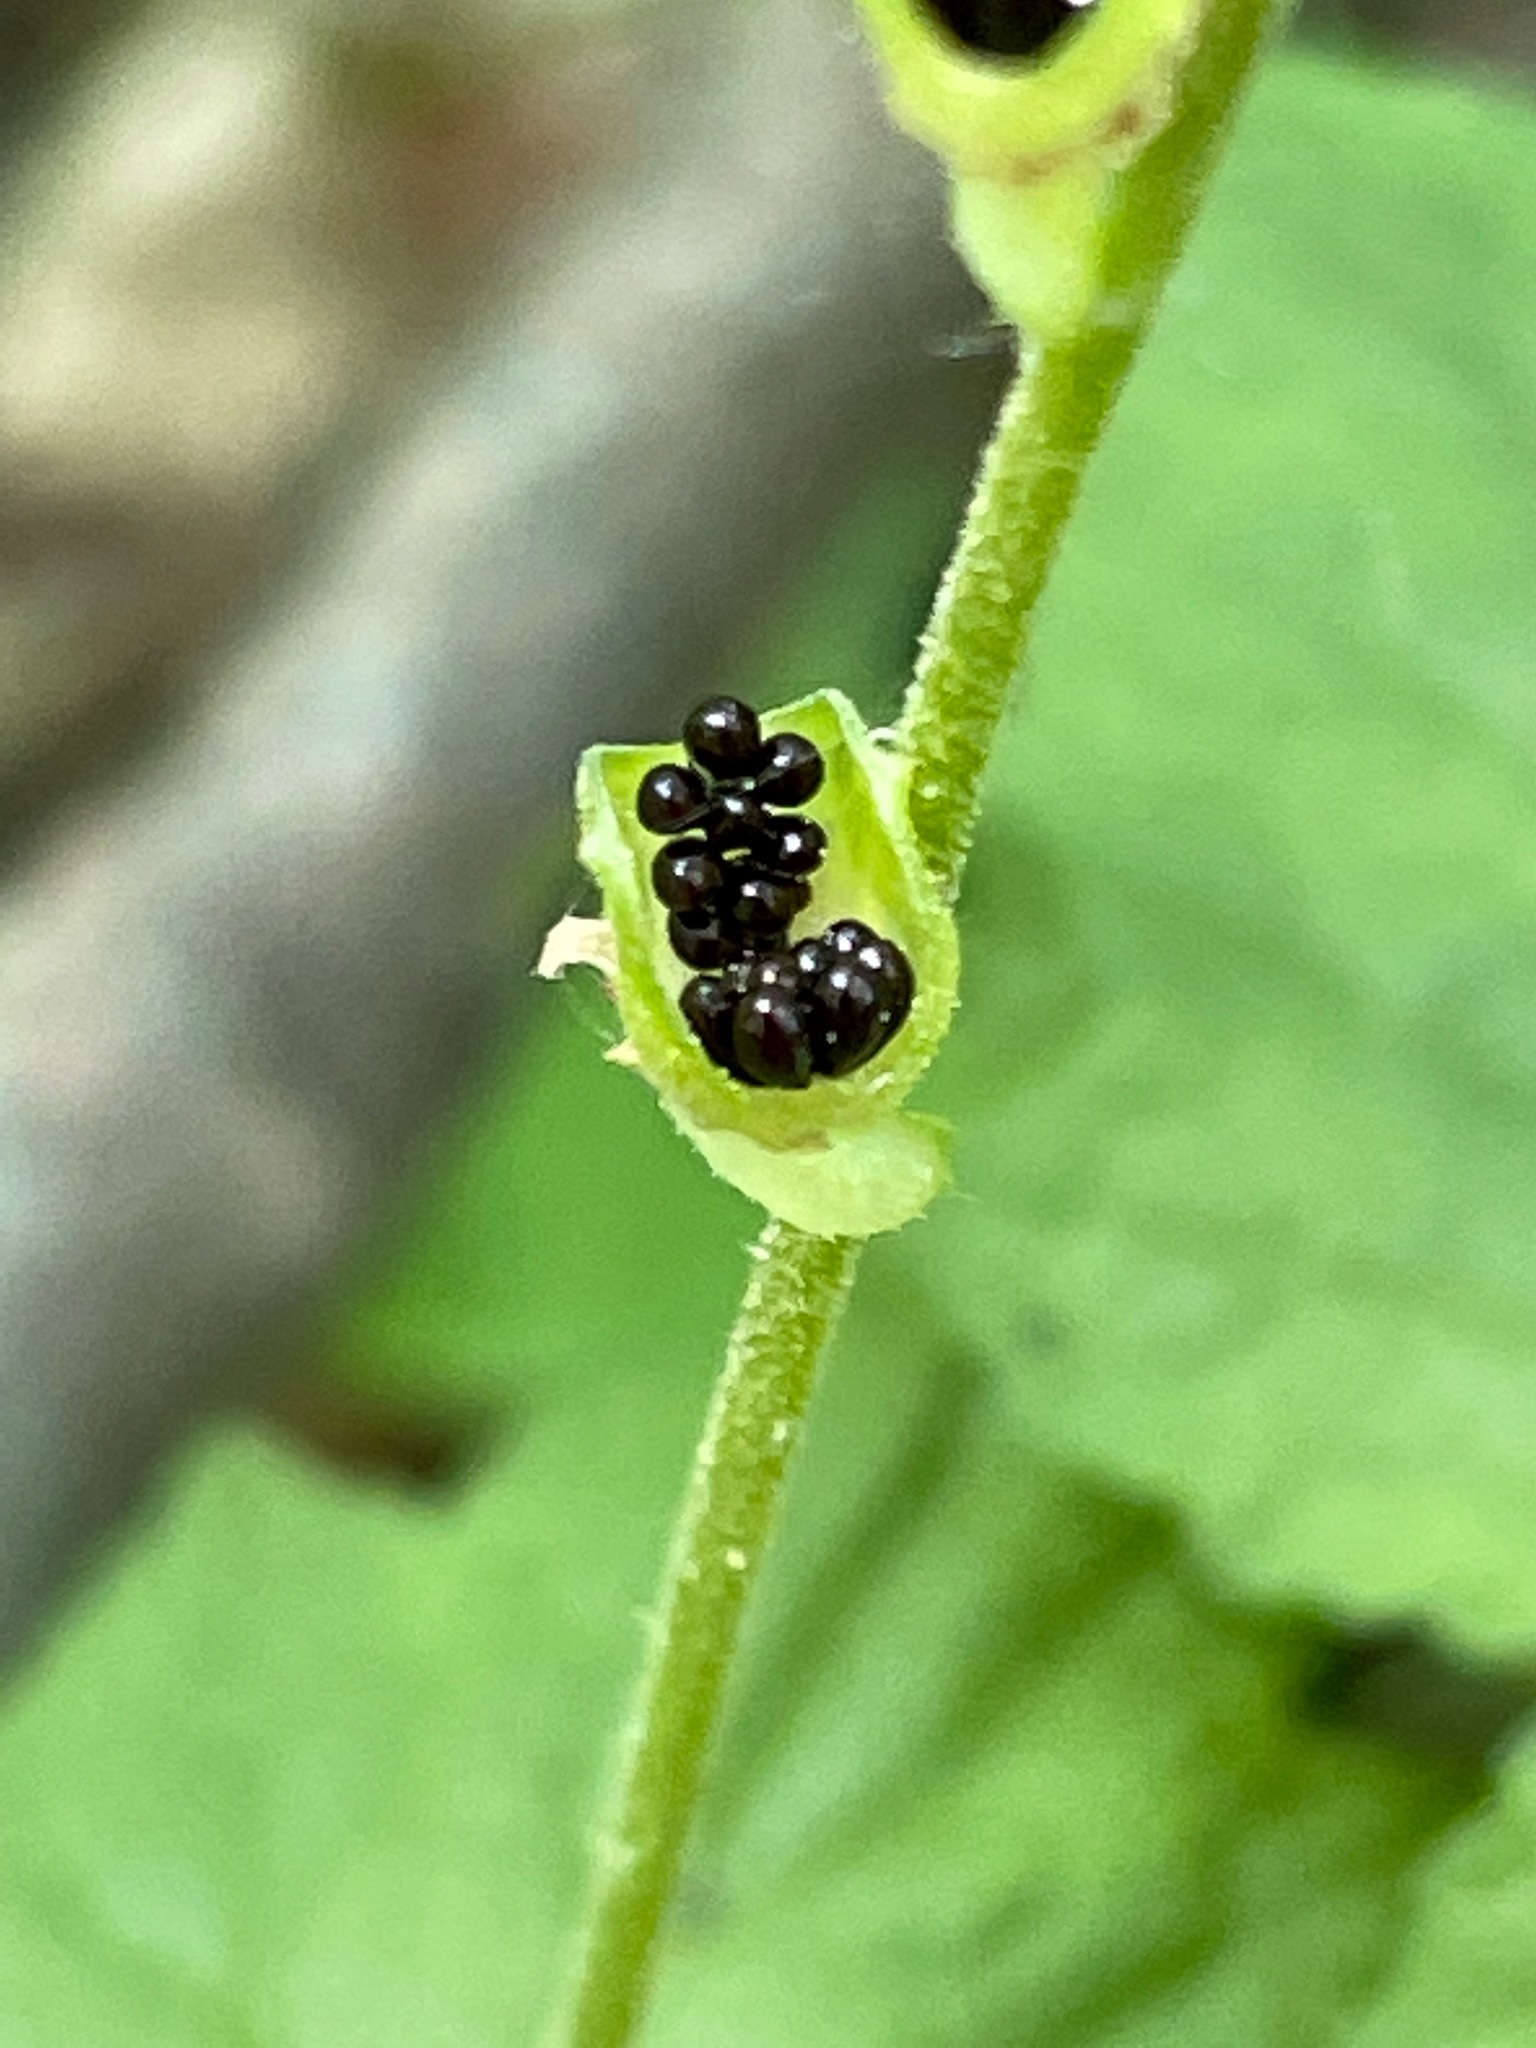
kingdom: Plantae
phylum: Tracheophyta
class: Magnoliopsida
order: Saxifragales
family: Saxifragaceae
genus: Mitella
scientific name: Mitella diphylla
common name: Coolwort
